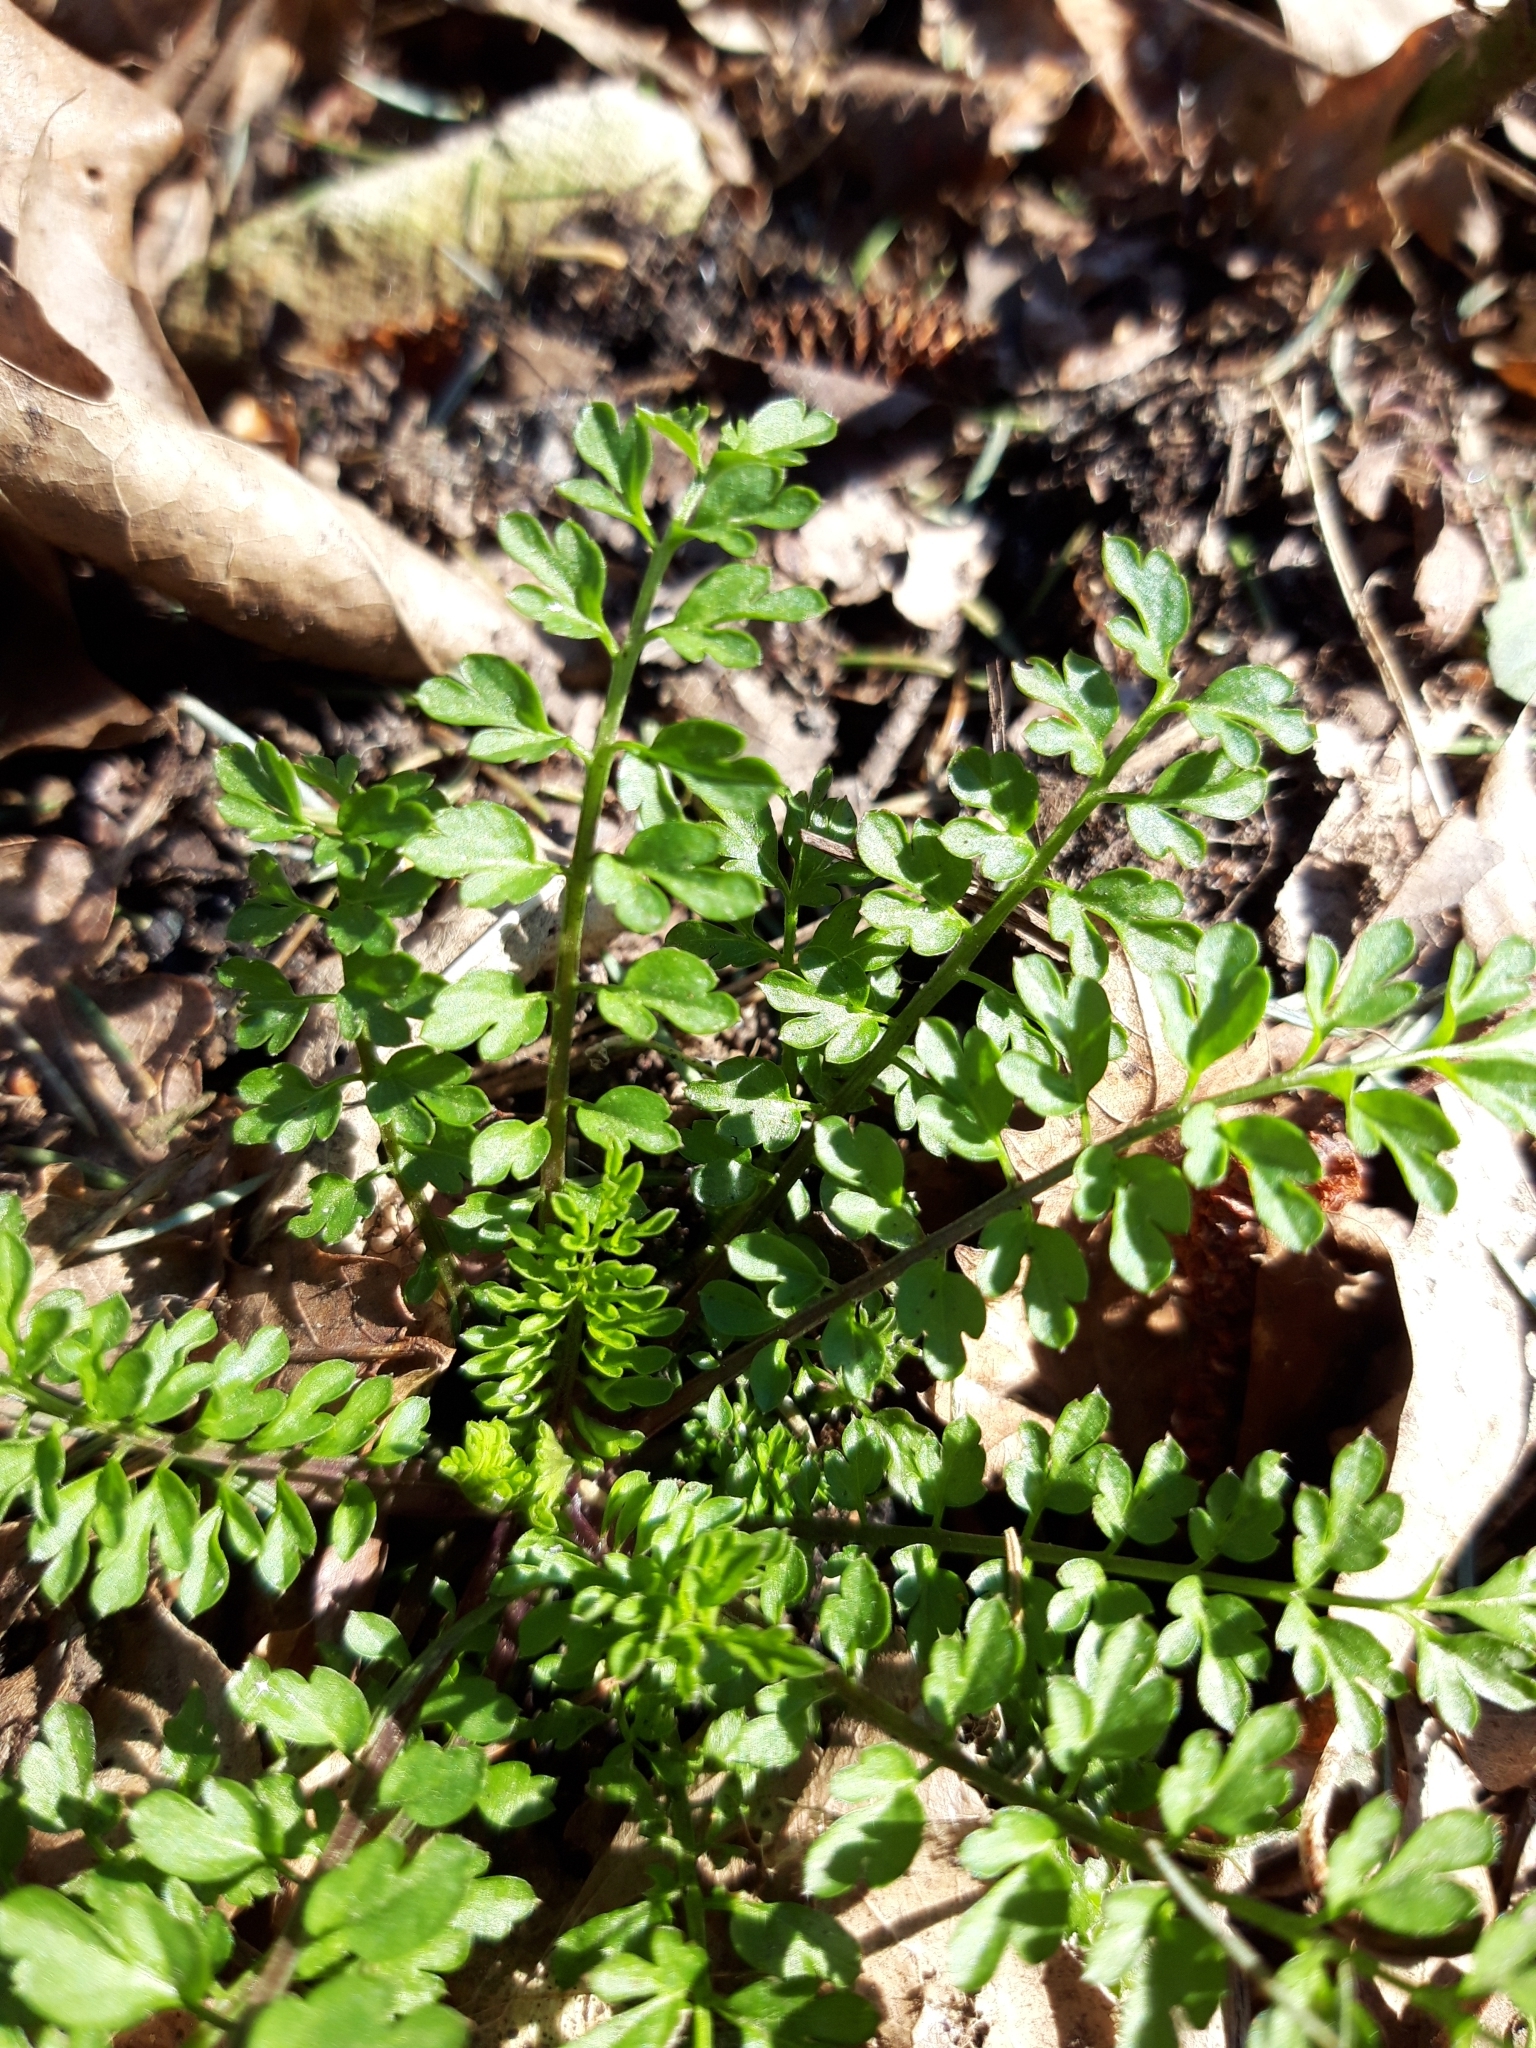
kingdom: Plantae
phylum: Tracheophyta
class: Magnoliopsida
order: Brassicales
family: Brassicaceae
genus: Cardamine
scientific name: Cardamine impatiens
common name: Narrow-leaved bitter-cress
